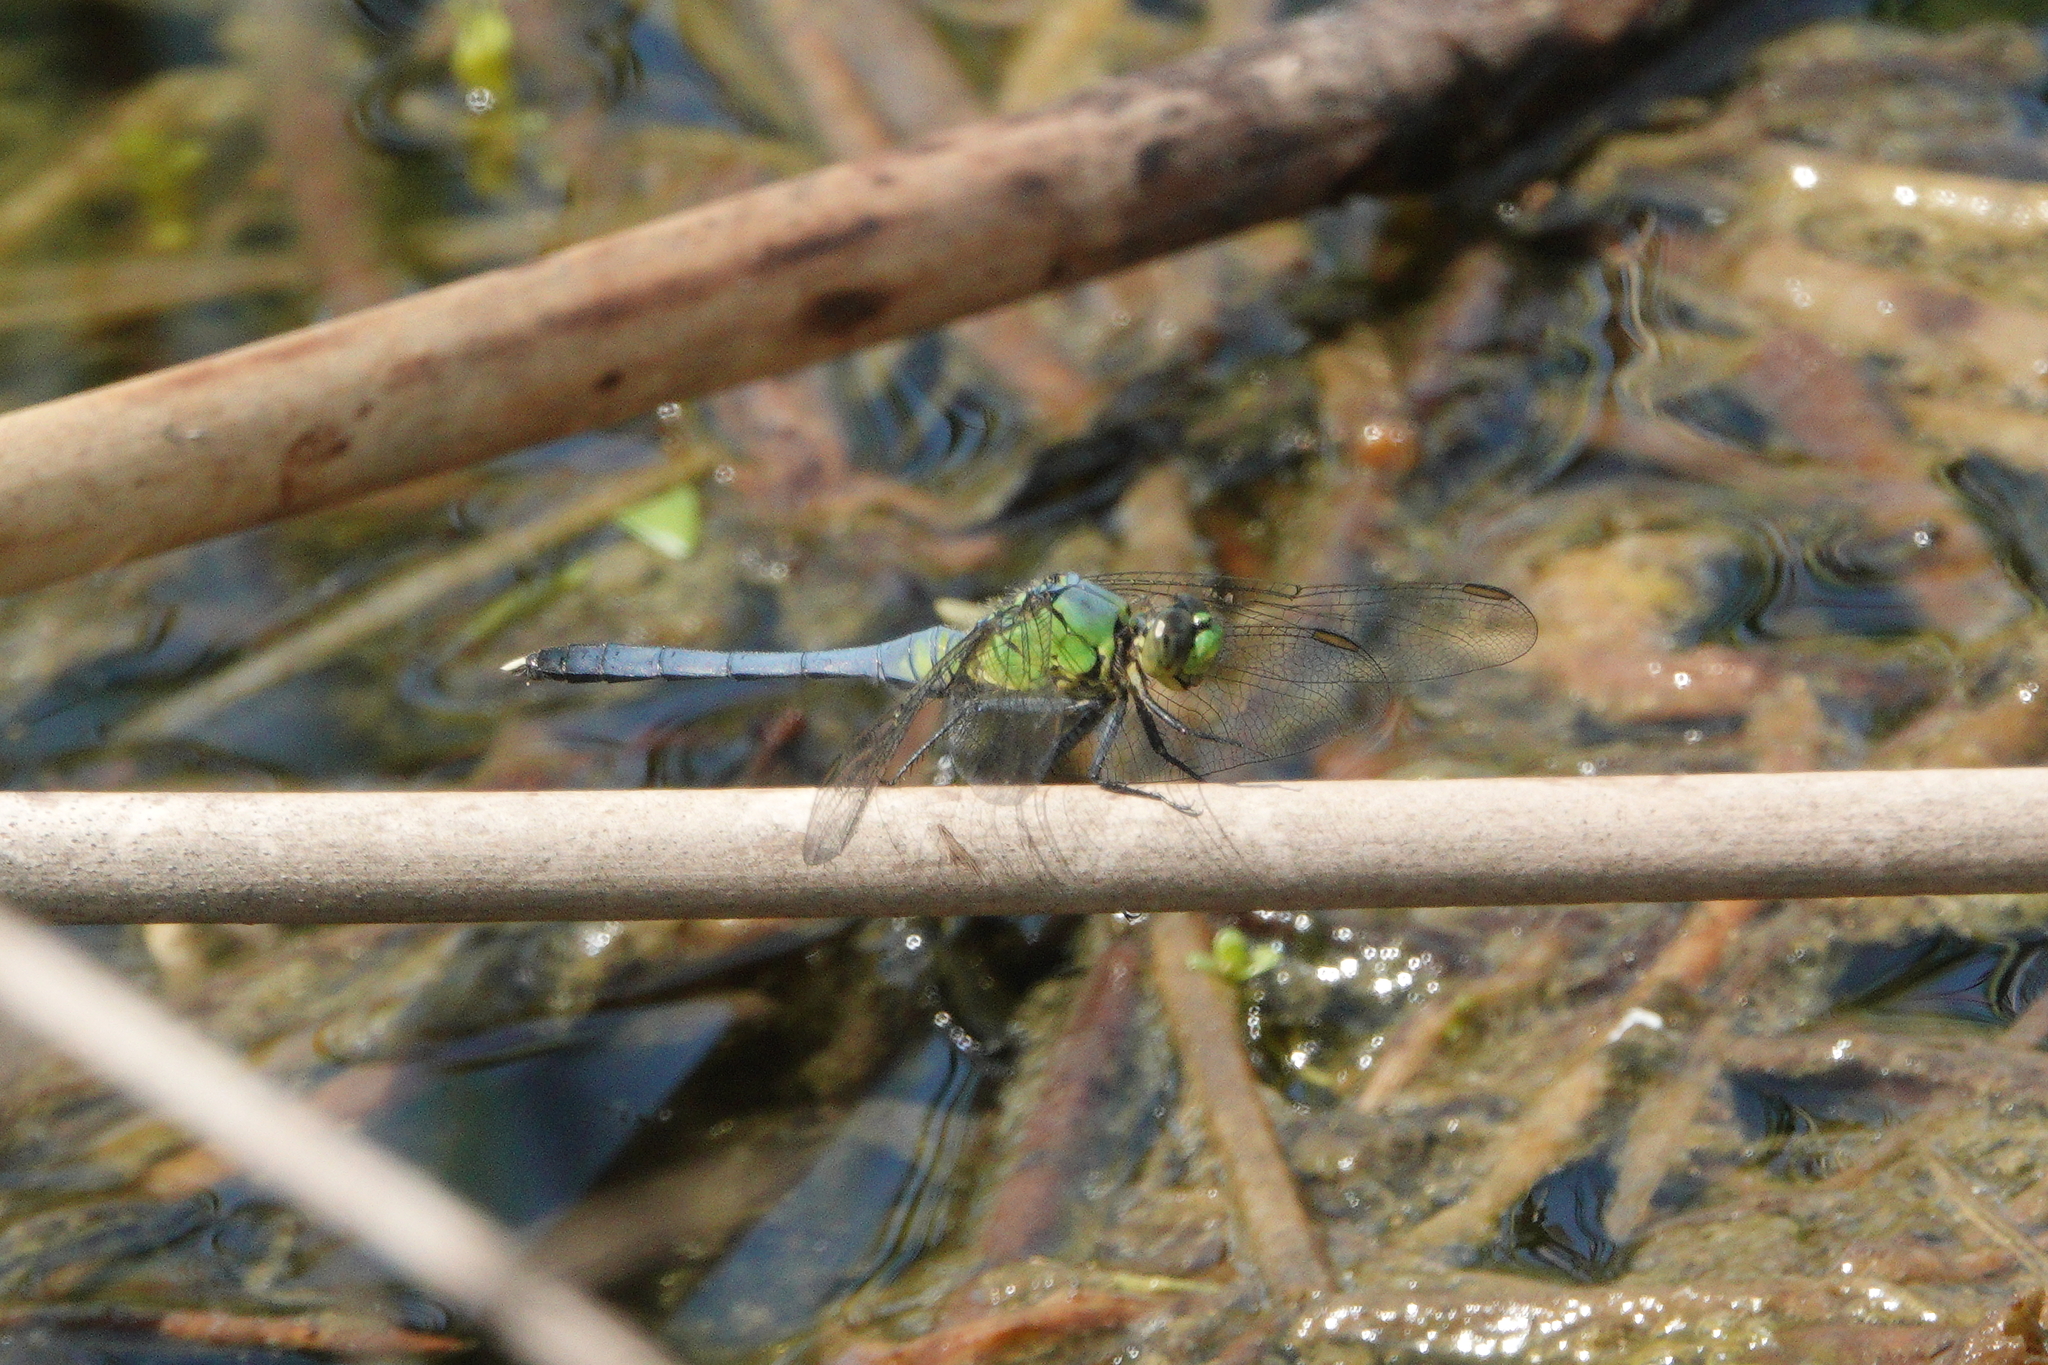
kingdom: Animalia
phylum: Arthropoda
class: Insecta
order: Odonata
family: Libellulidae
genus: Erythemis
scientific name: Erythemis simplicicollis
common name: Eastern pondhawk
